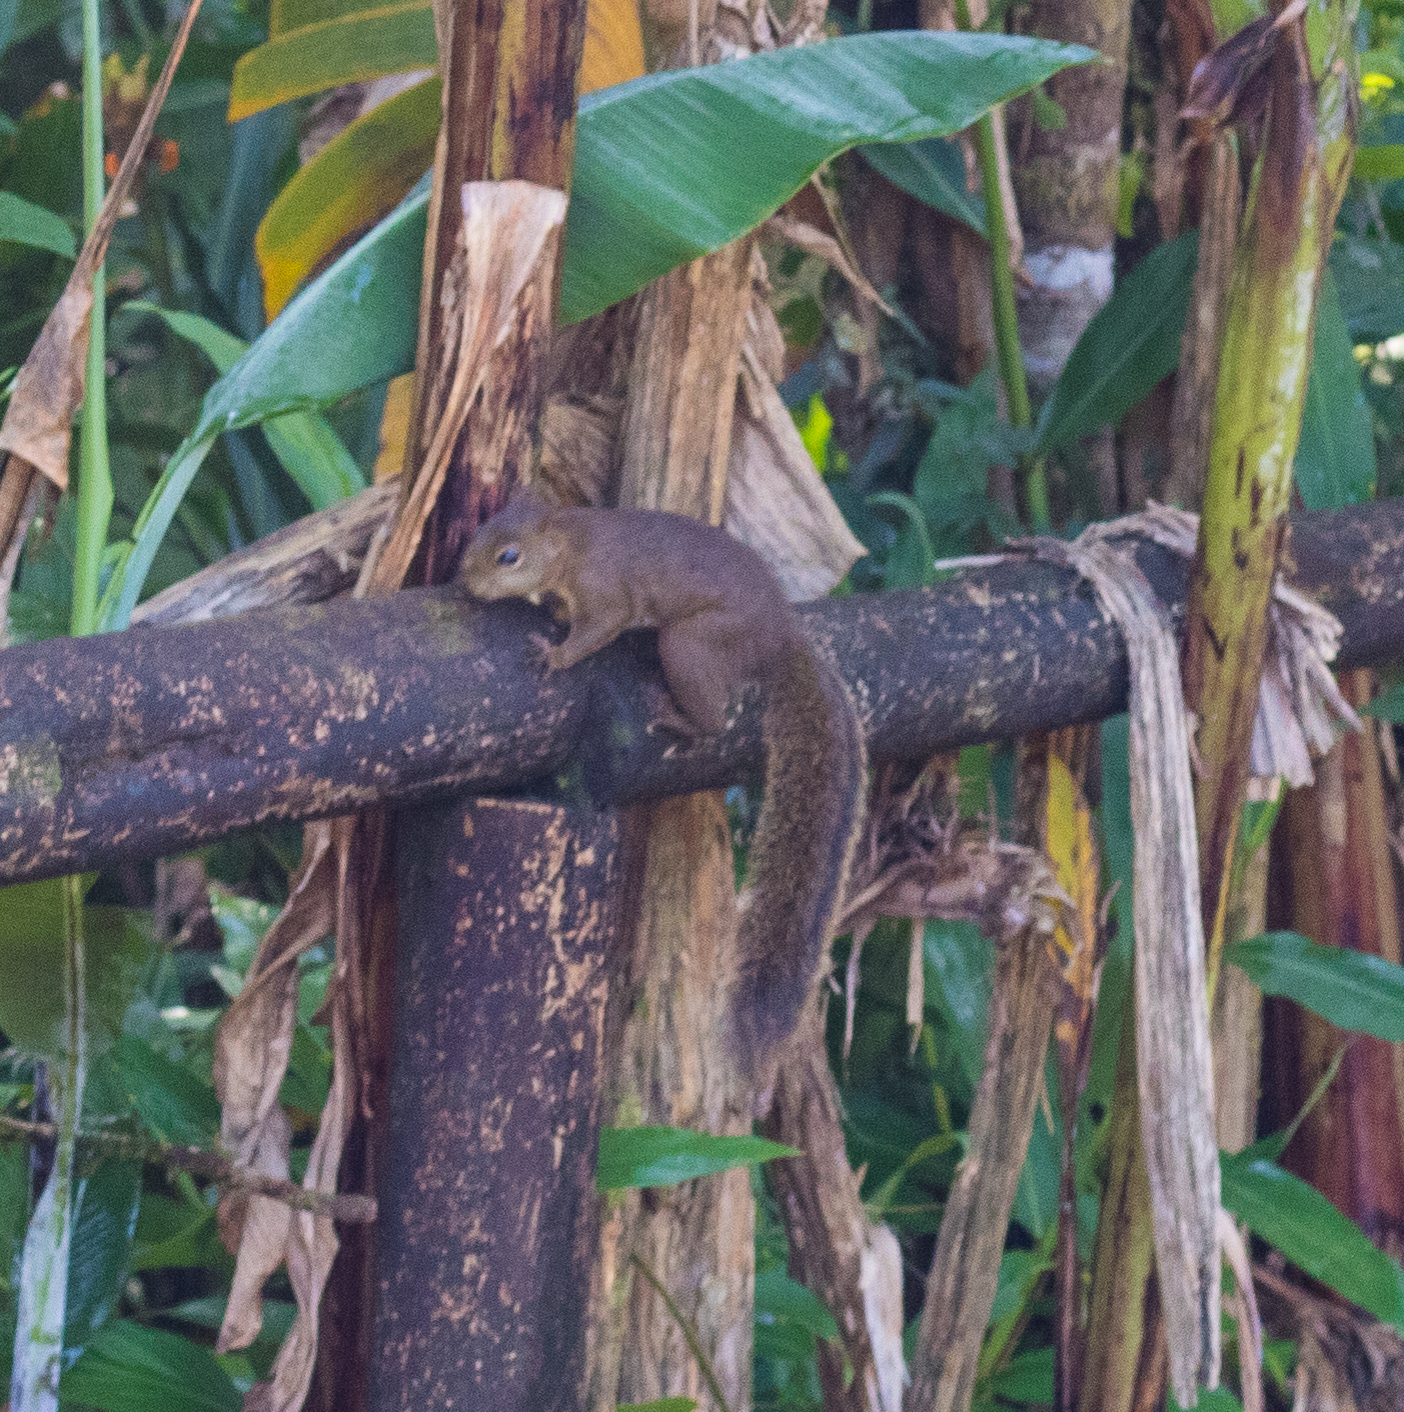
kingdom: Animalia
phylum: Chordata
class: Mammalia
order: Rodentia
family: Sciuridae
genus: Sciurus
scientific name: Sciurus aestuans
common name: Guianan squirrel
